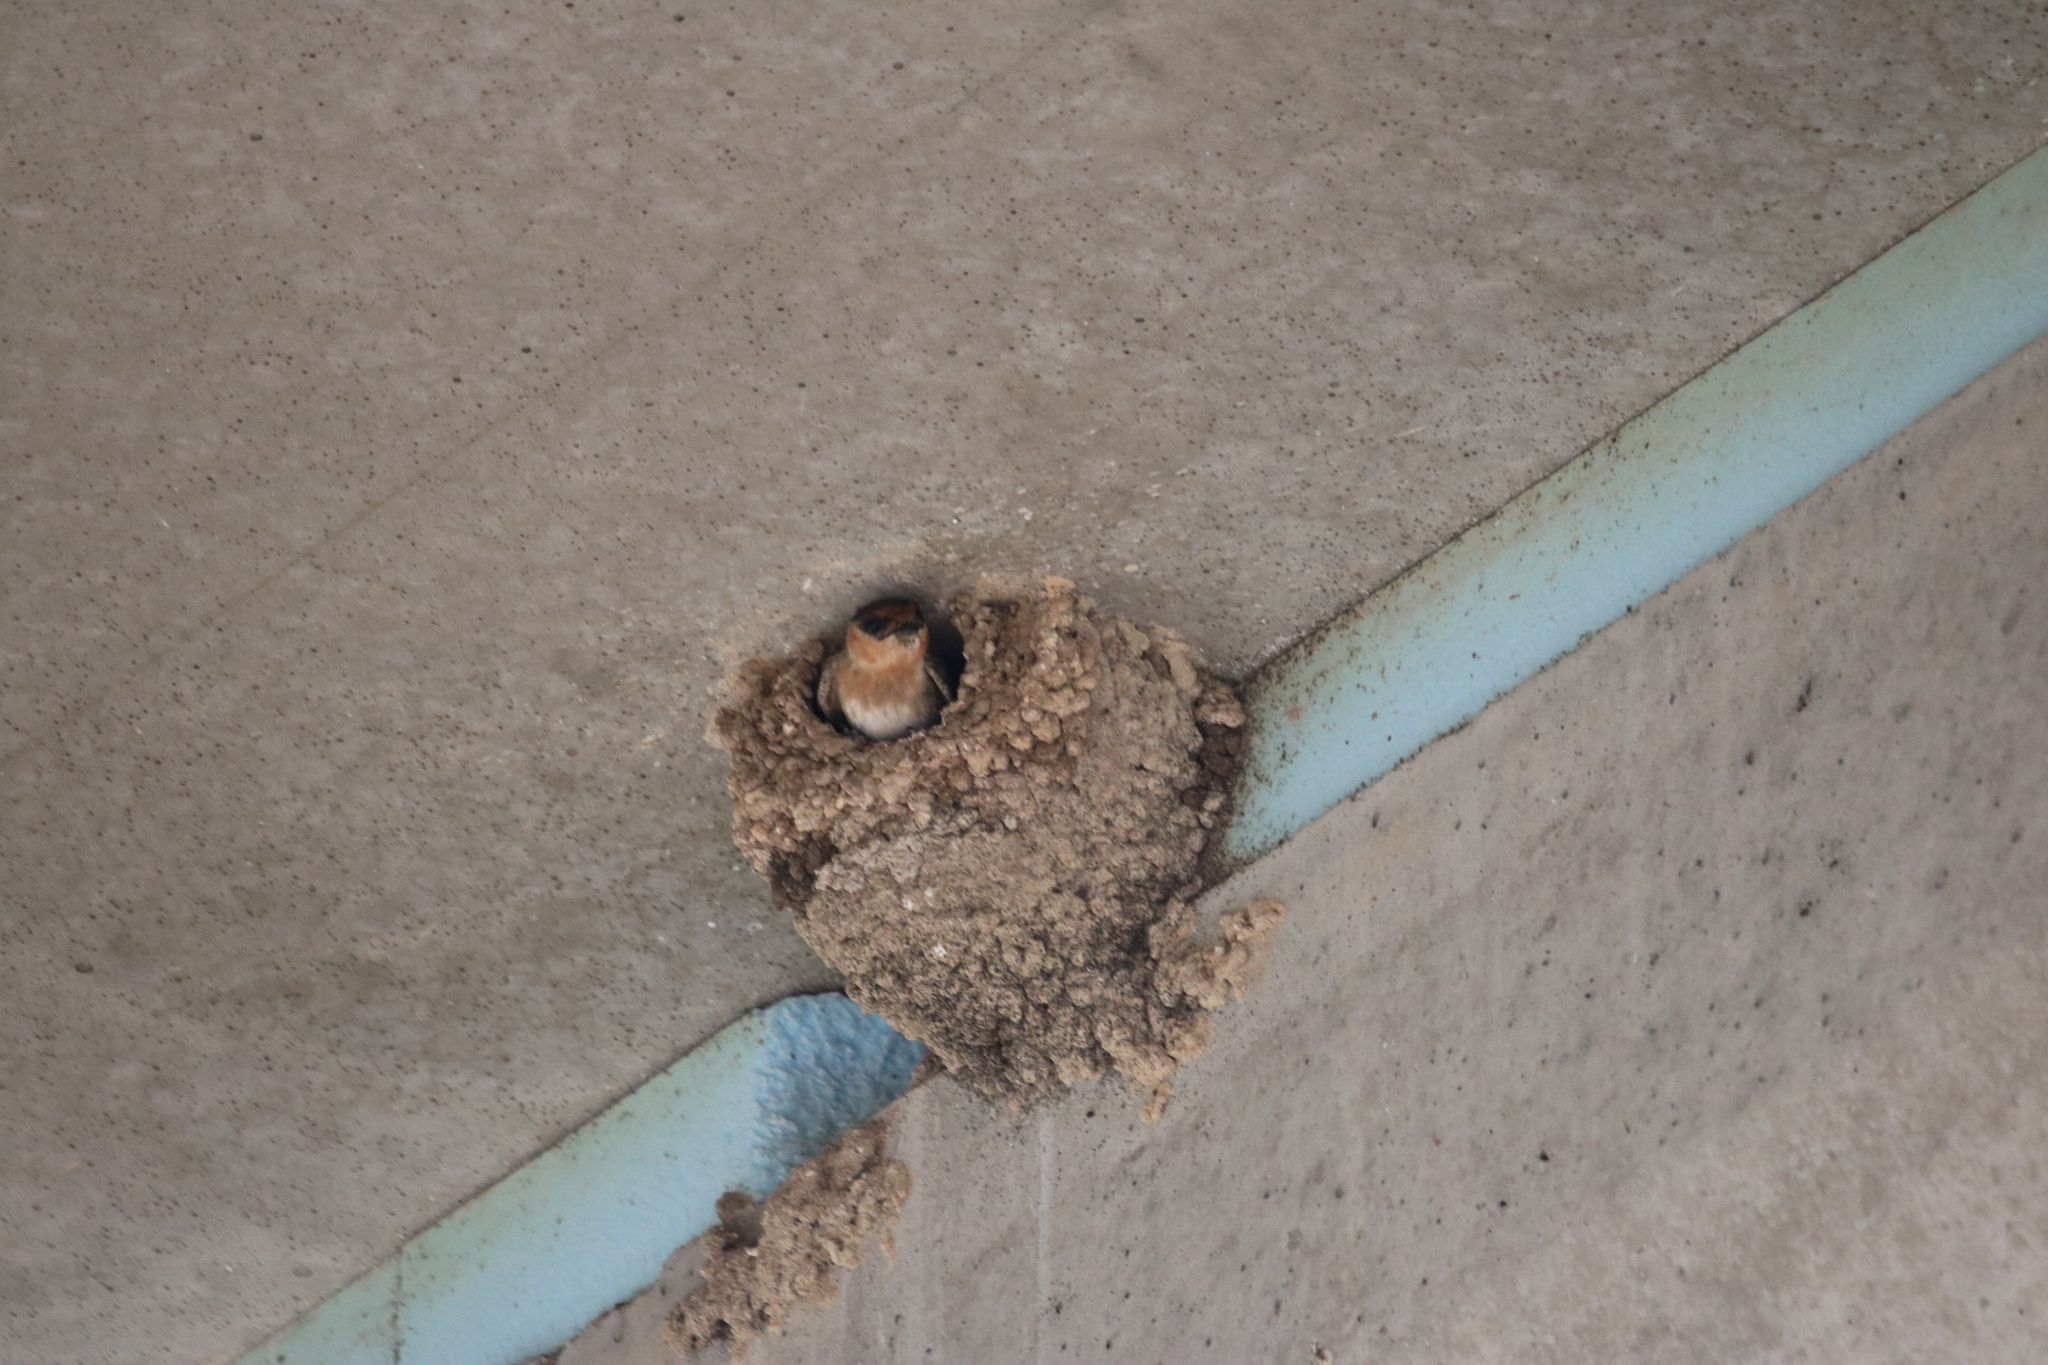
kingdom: Animalia
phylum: Chordata
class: Aves
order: Passeriformes
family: Hirundinidae
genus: Petrochelidon
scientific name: Petrochelidon pyrrhonota
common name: American cliff swallow
